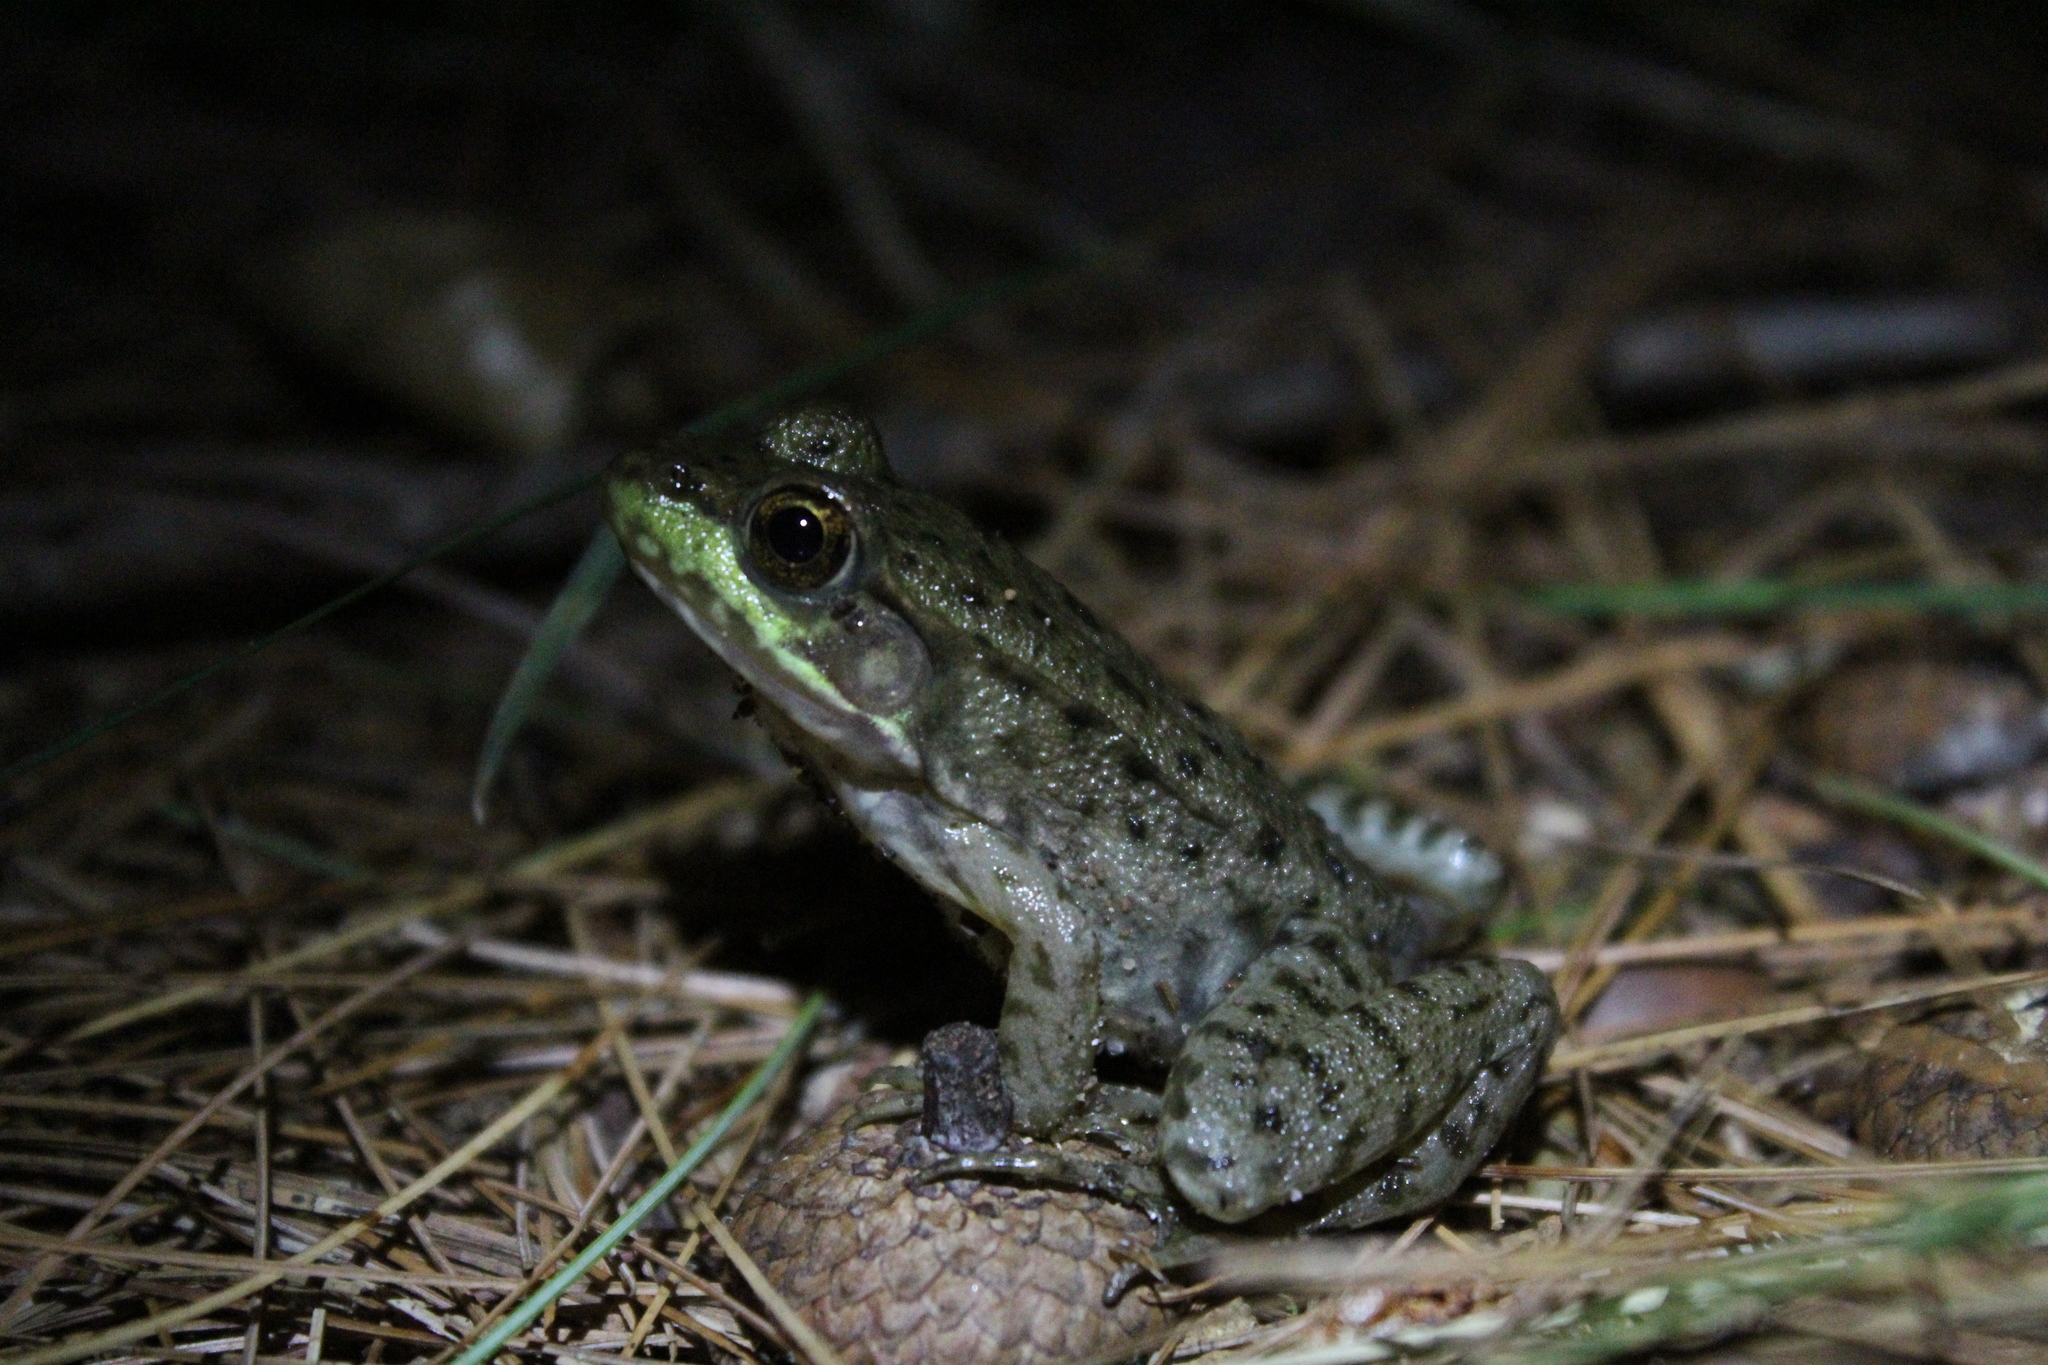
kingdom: Animalia
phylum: Chordata
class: Amphibia
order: Anura
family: Ranidae
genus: Lithobates
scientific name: Lithobates clamitans
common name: Green frog
